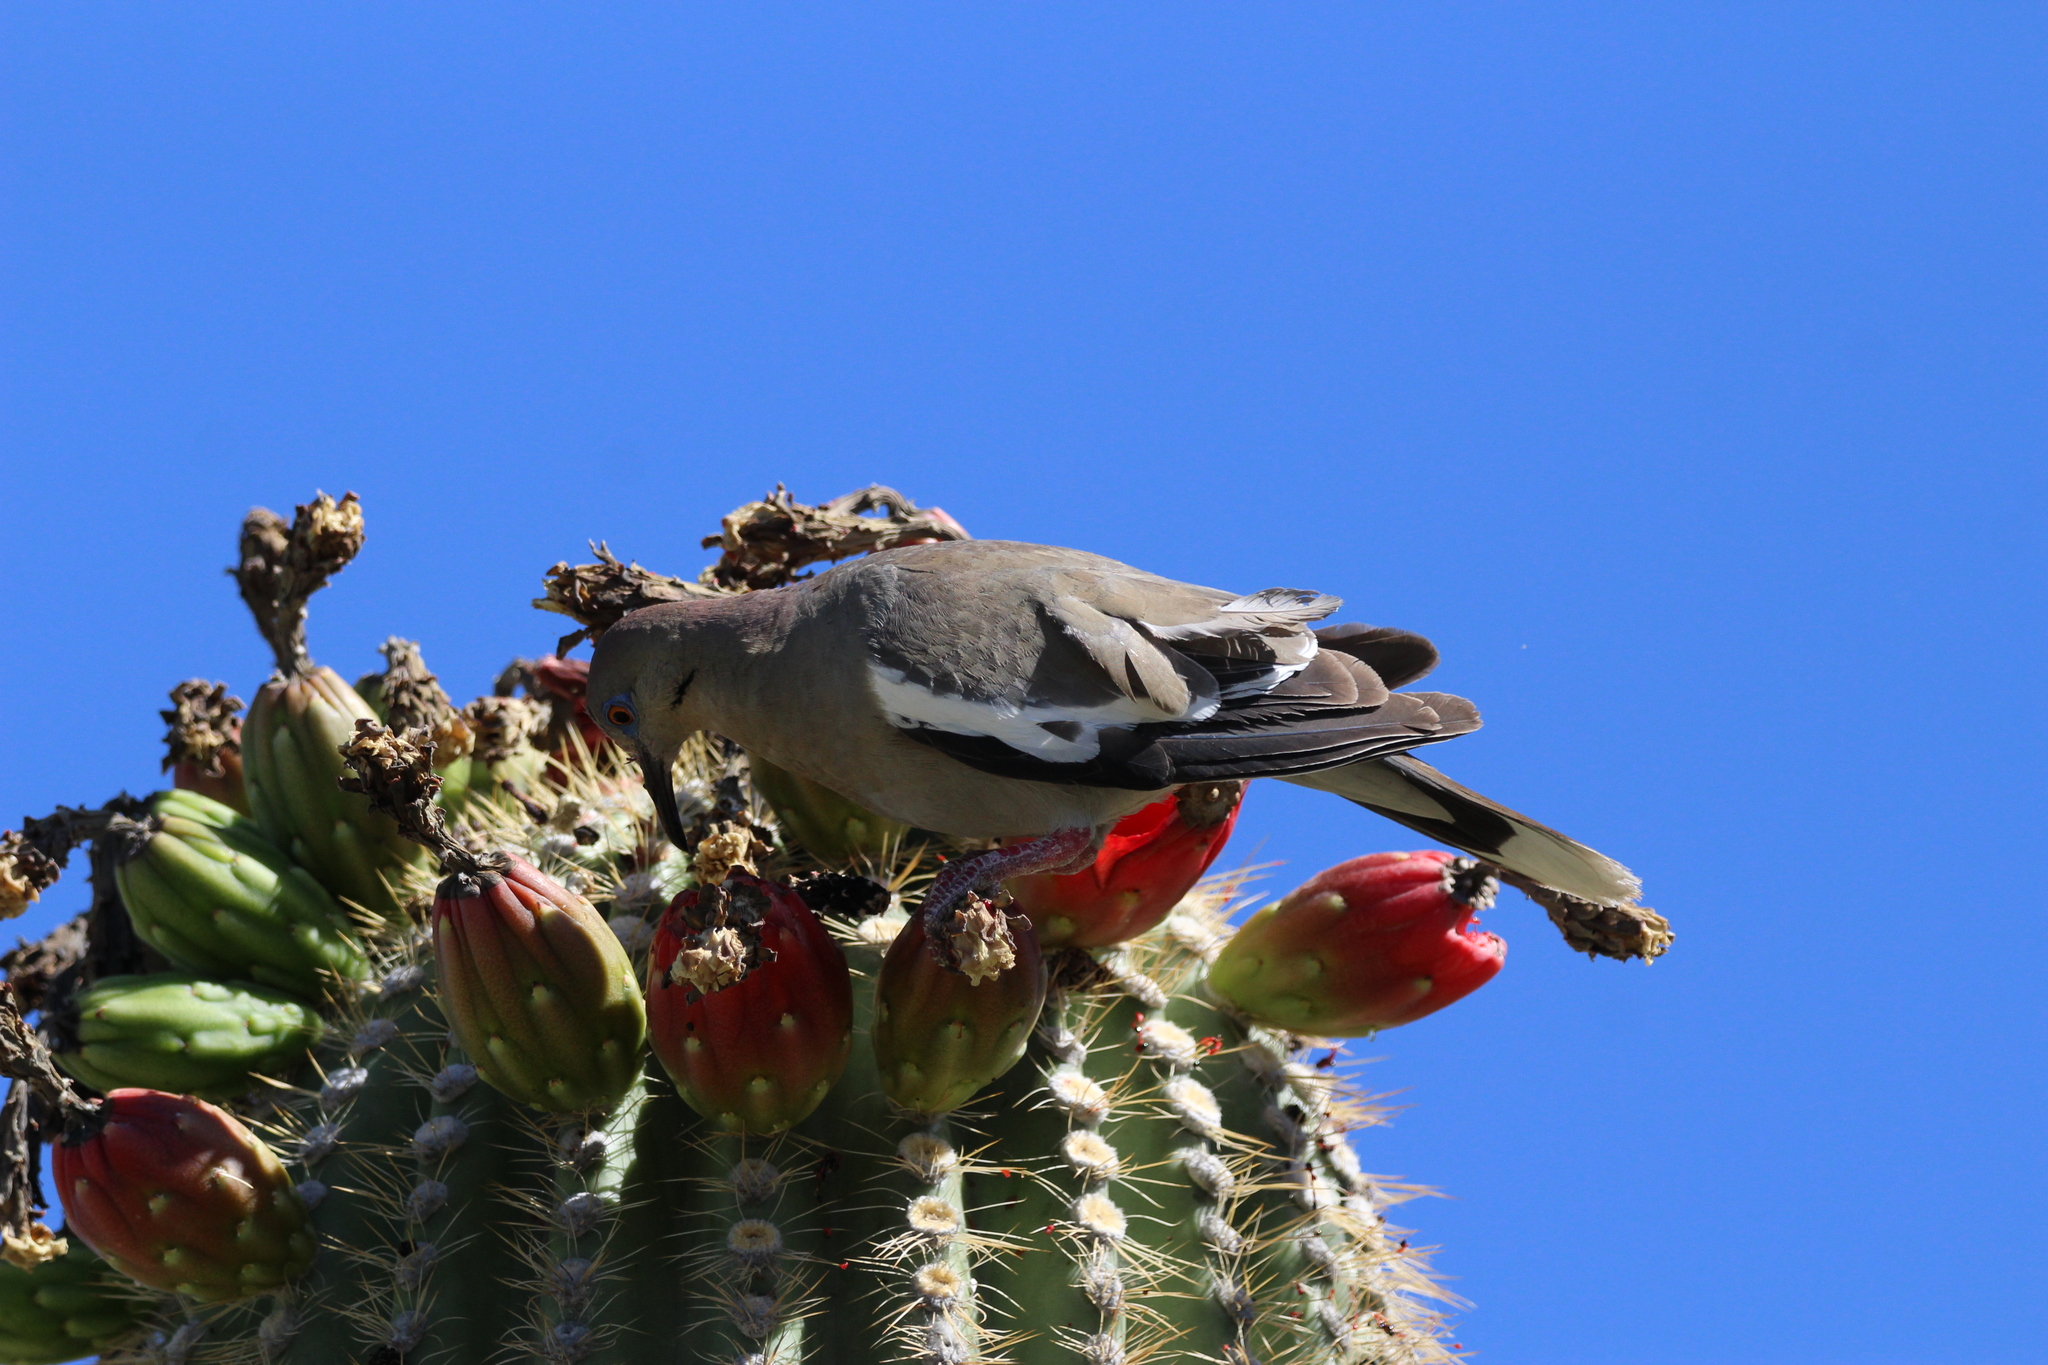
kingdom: Animalia
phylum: Chordata
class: Aves
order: Columbiformes
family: Columbidae
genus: Zenaida
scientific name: Zenaida asiatica
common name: White-winged dove
